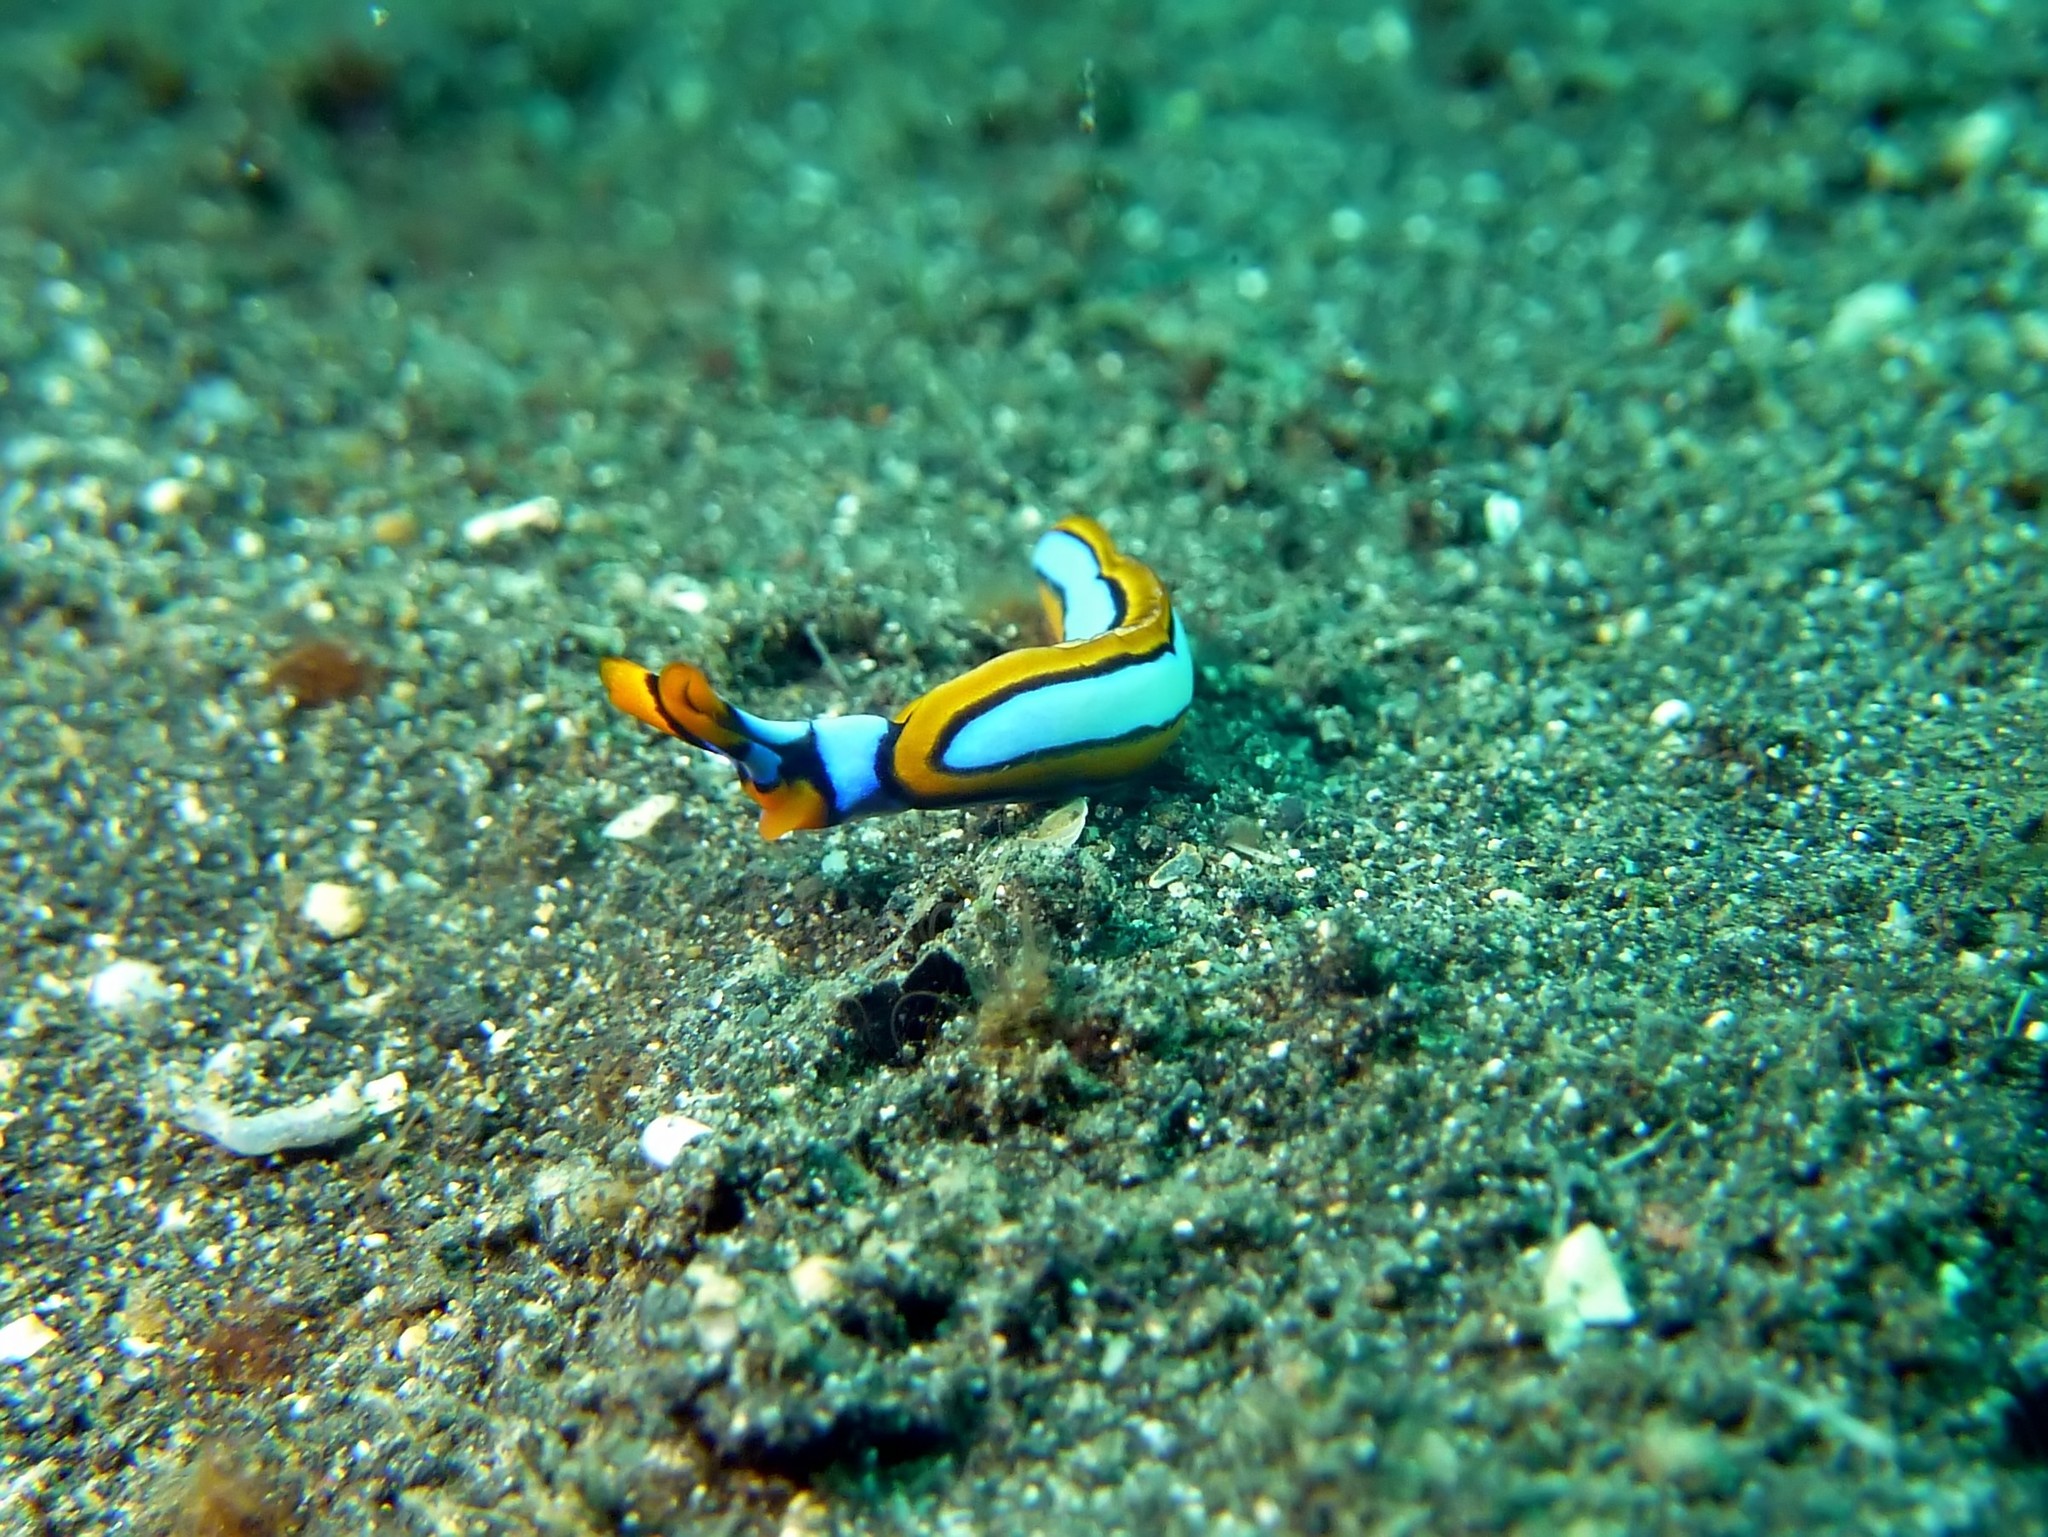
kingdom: Animalia
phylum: Mollusca
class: Gastropoda
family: Plakobranchidae
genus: Thuridilla
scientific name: Thuridilla lineolata
